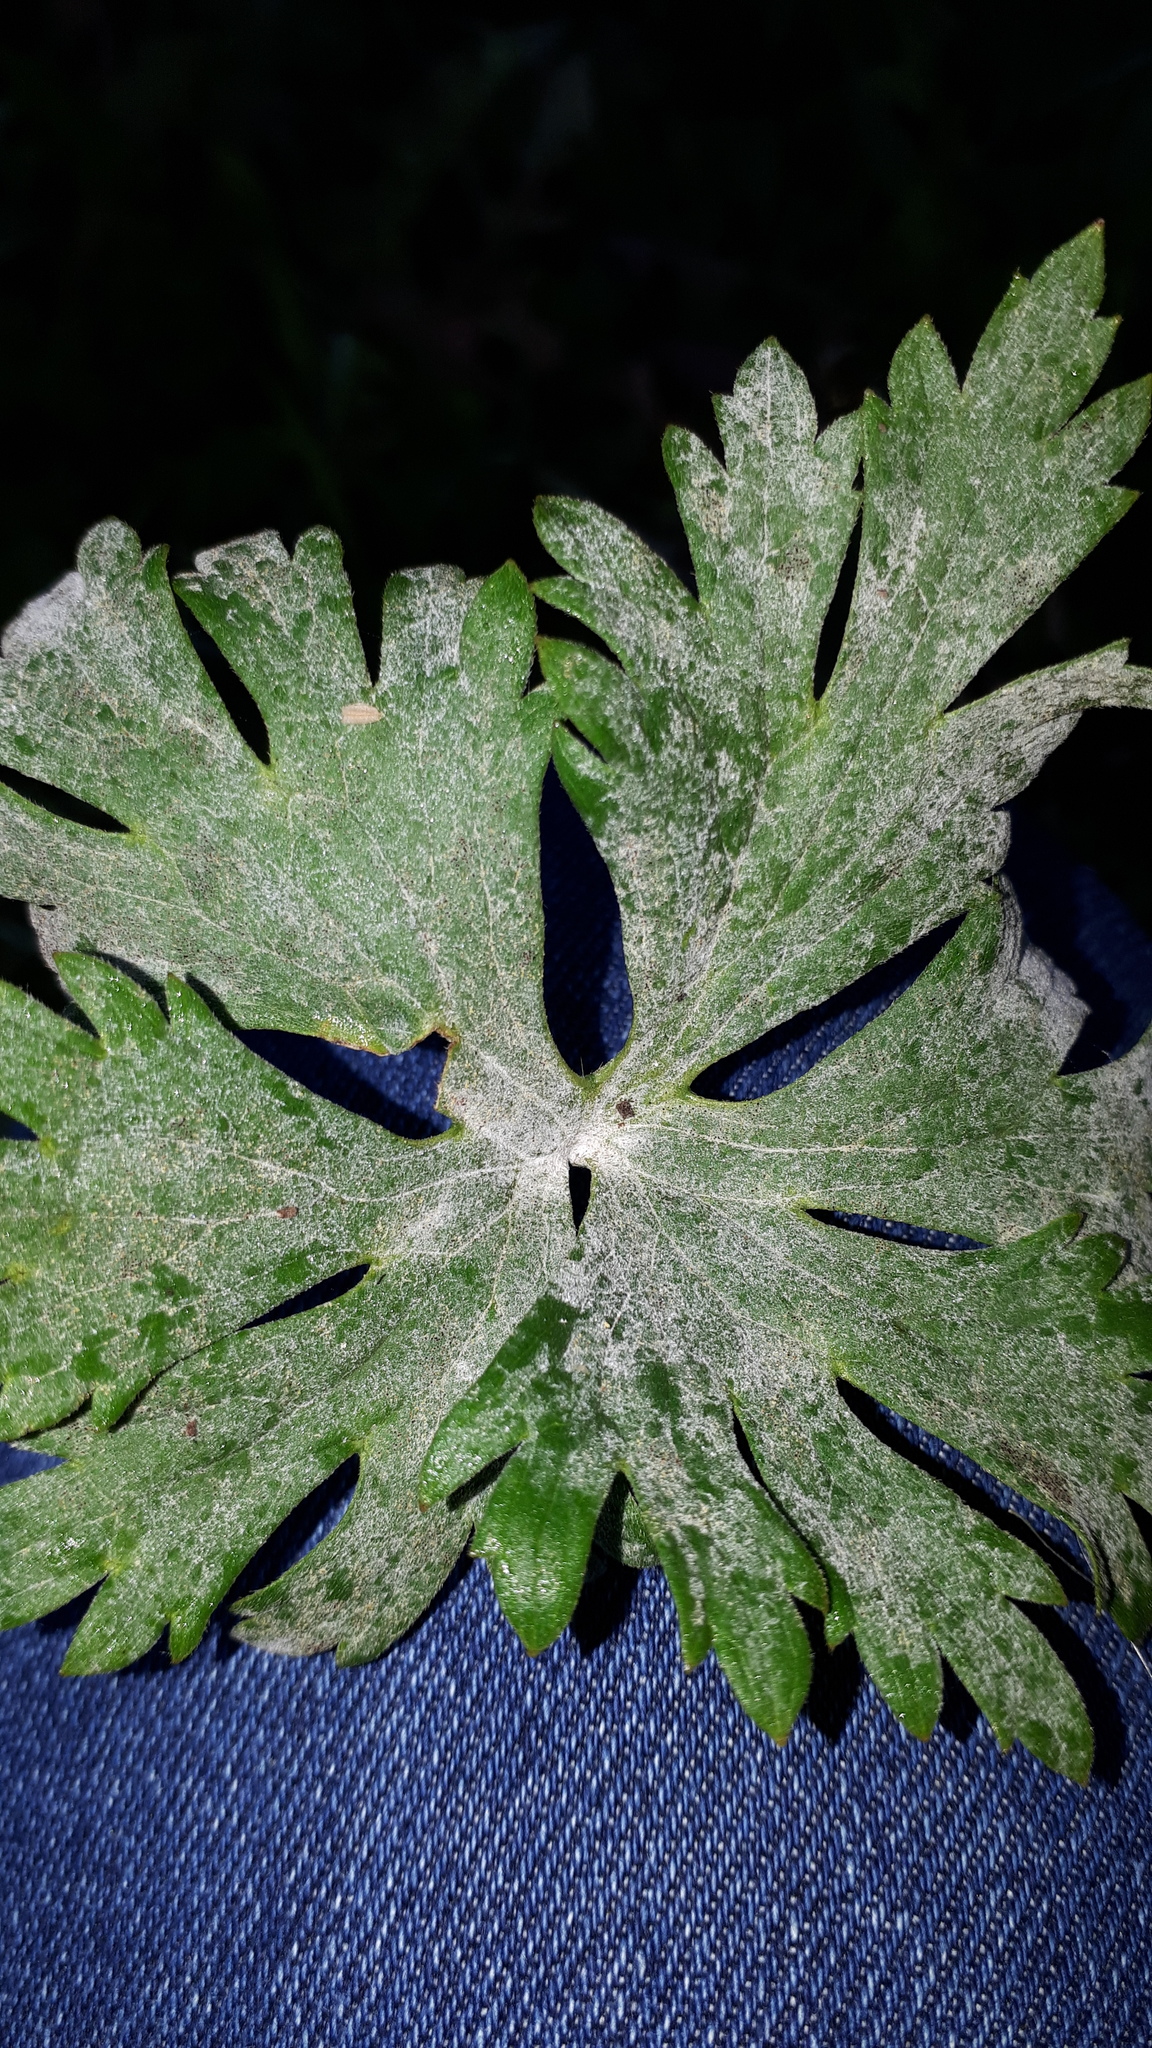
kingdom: Fungi
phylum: Ascomycota
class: Leotiomycetes
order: Helotiales
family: Erysiphaceae
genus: Erysiphe
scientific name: Erysiphe aquilegiae
